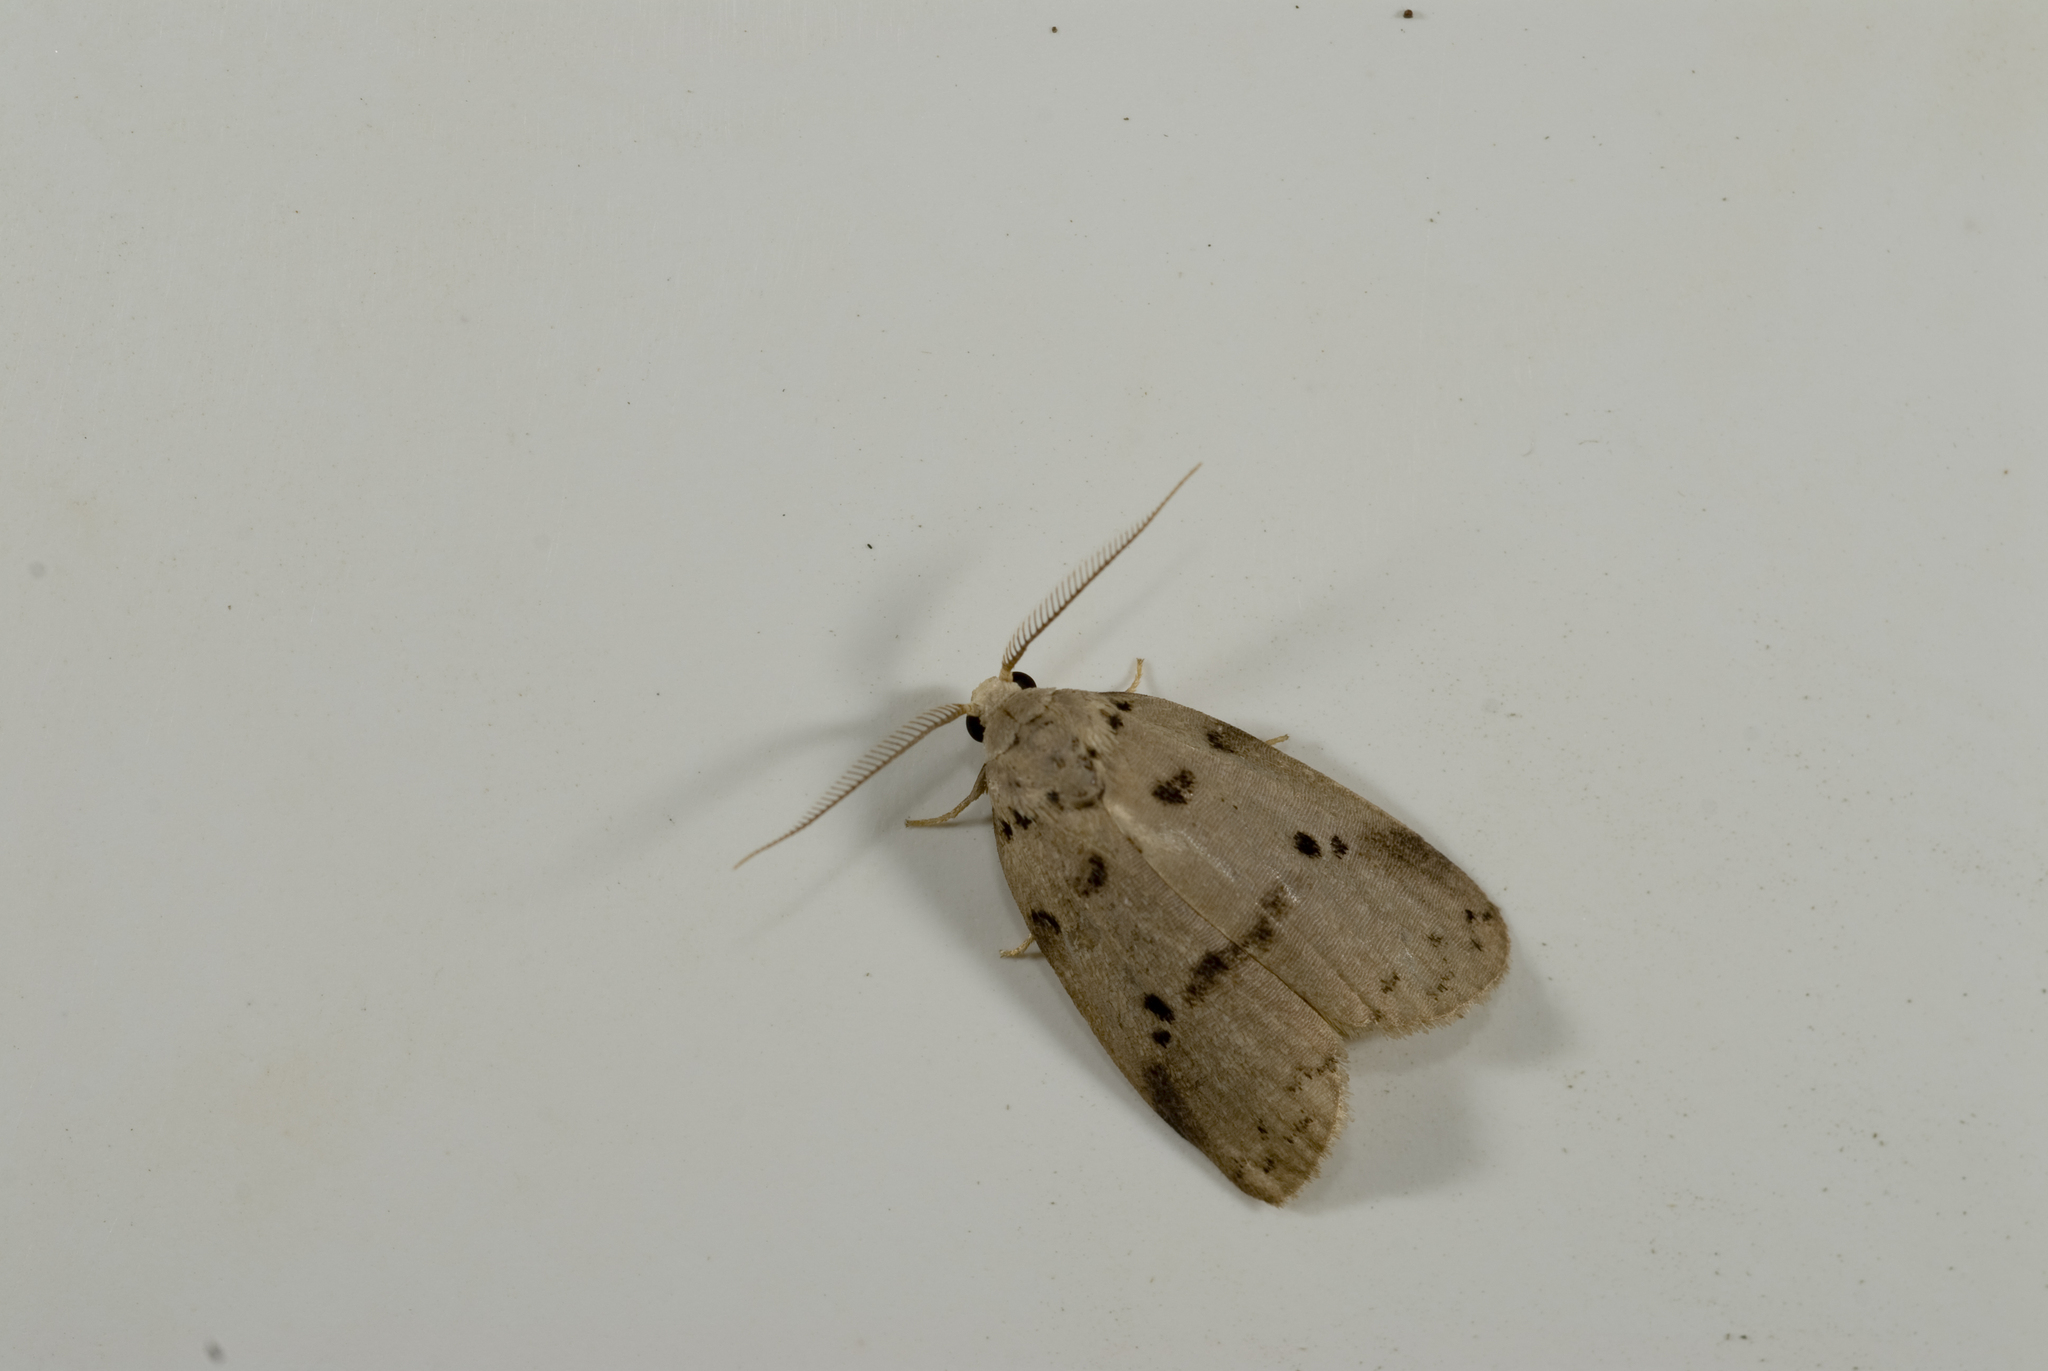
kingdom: Animalia
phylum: Arthropoda
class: Insecta
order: Lepidoptera
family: Erebidae
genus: Eugoa
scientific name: Eugoa grisea
